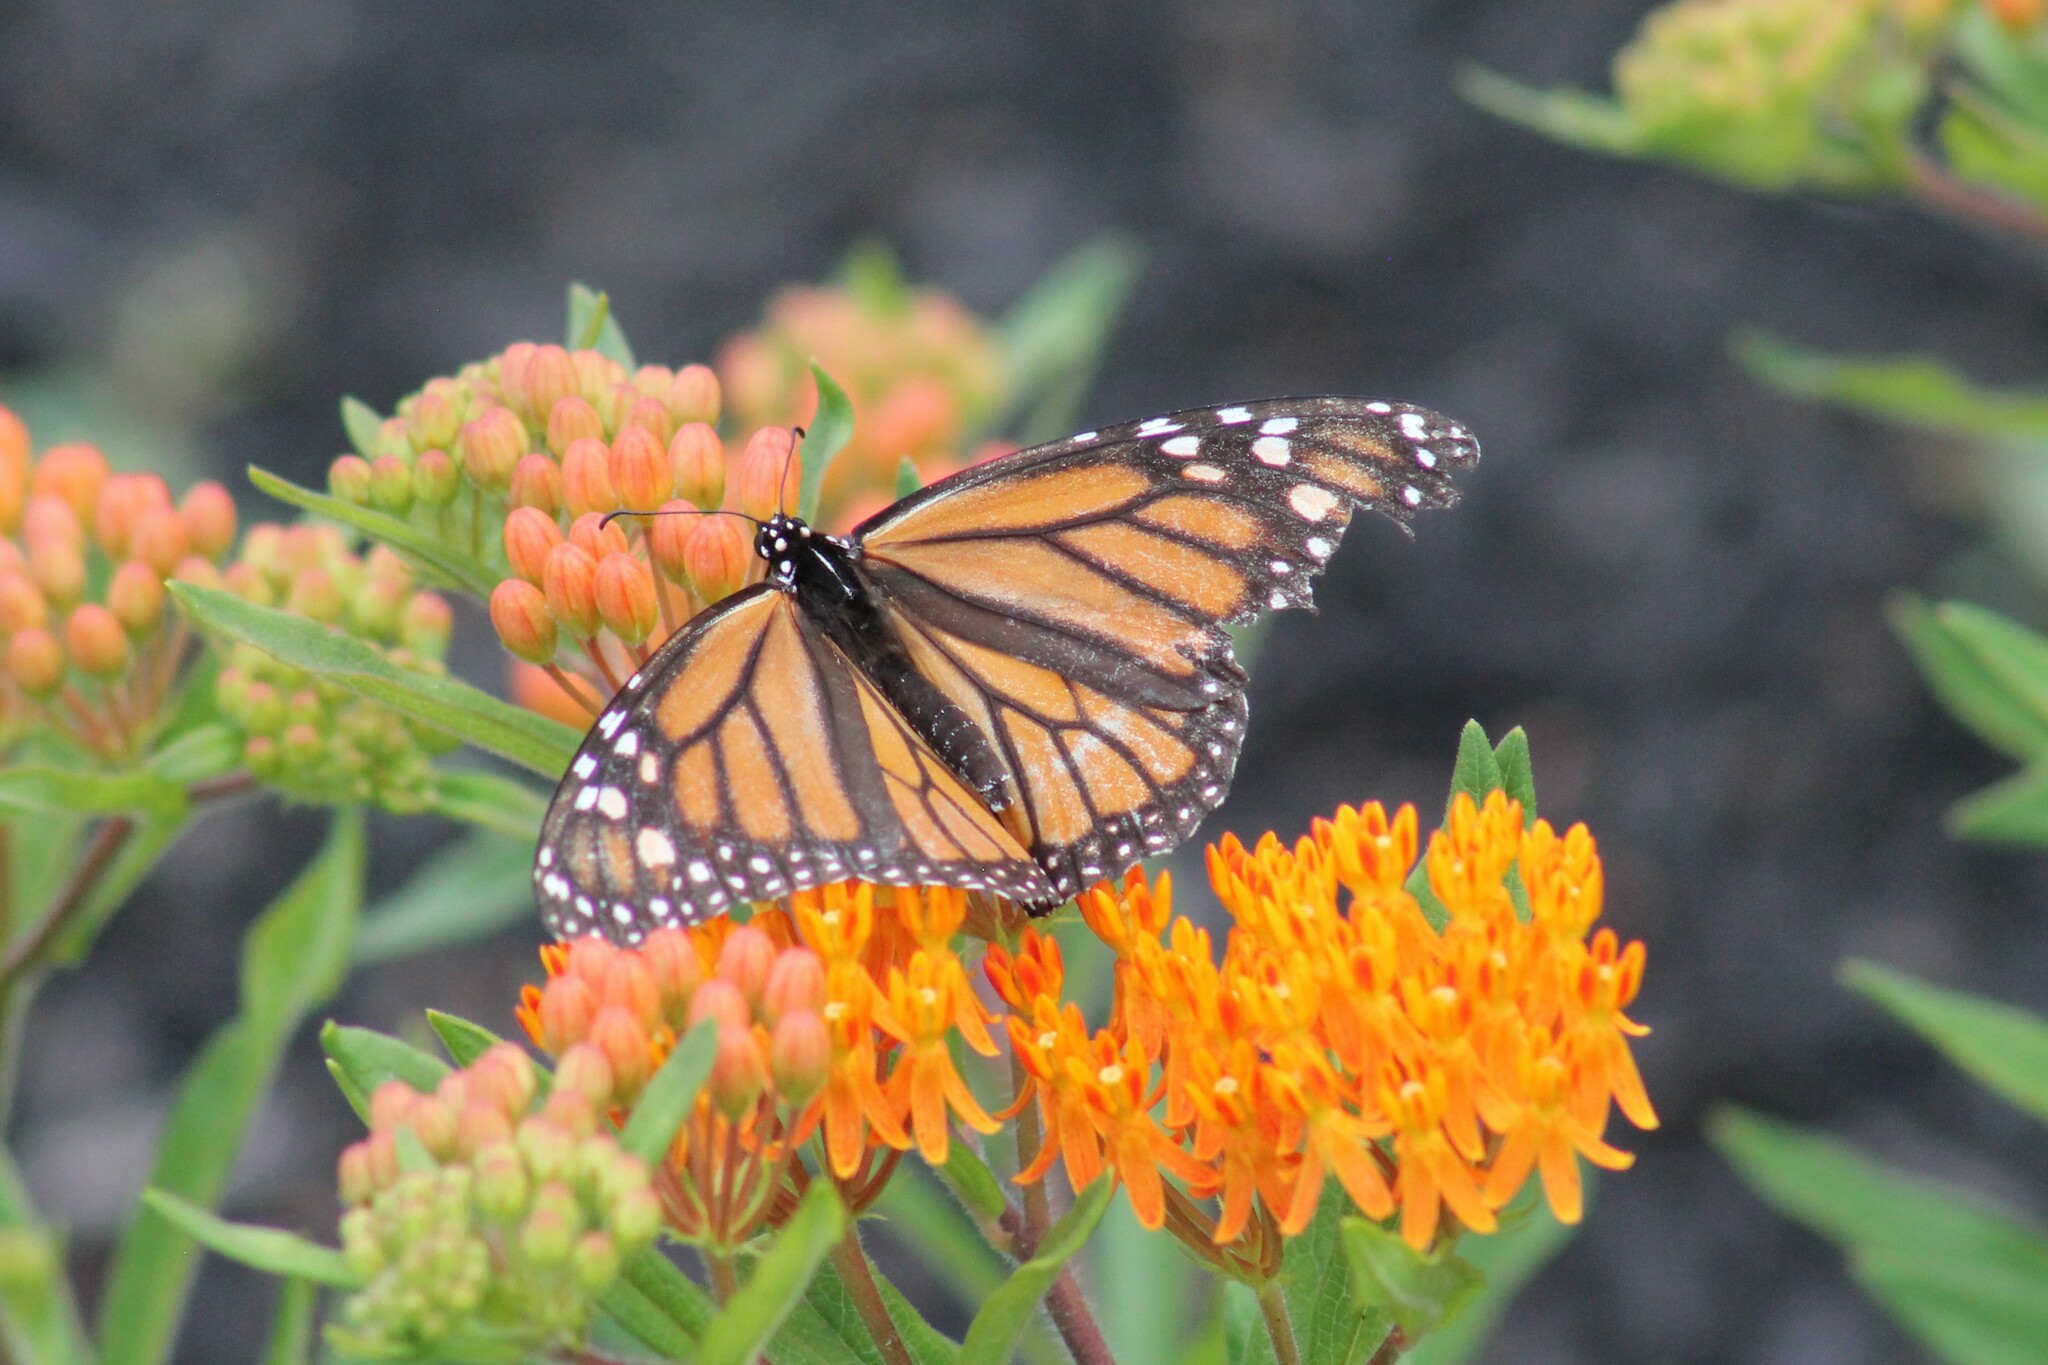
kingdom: Animalia
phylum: Arthropoda
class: Insecta
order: Lepidoptera
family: Nymphalidae
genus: Danaus
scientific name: Danaus plexippus
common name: Monarch
